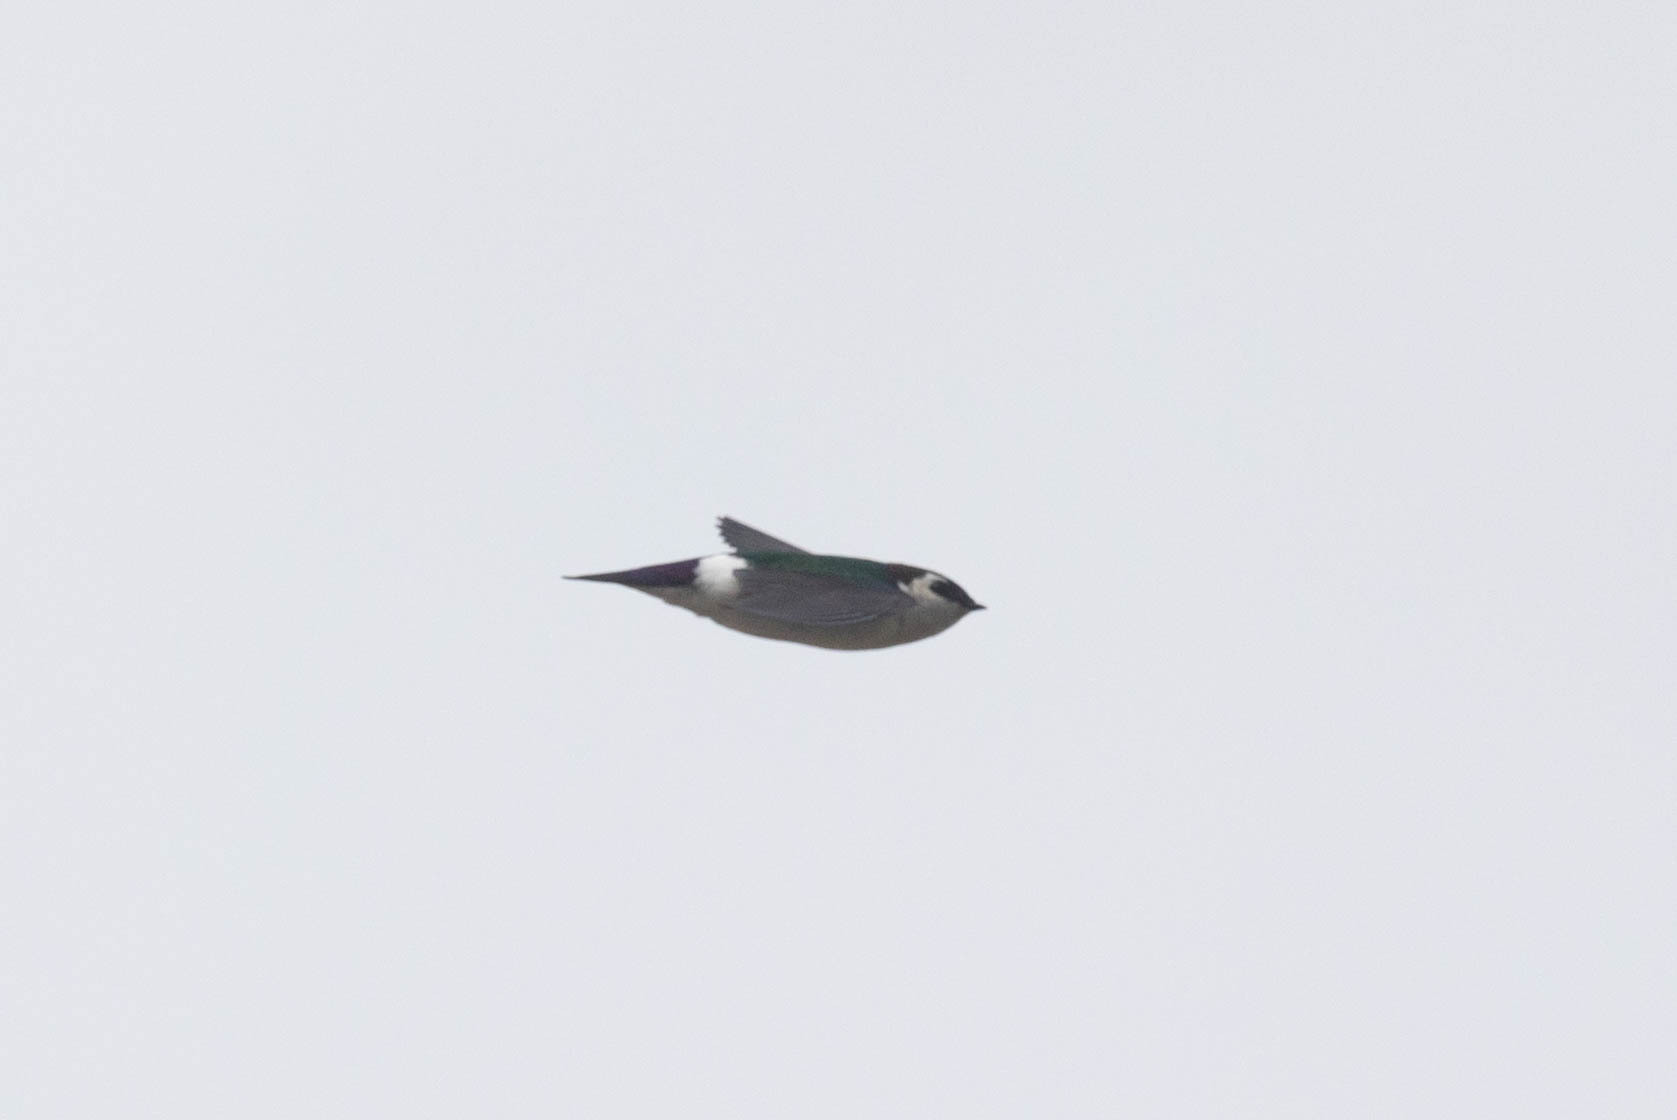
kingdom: Animalia
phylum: Chordata
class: Aves
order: Passeriformes
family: Hirundinidae
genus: Tachycineta
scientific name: Tachycineta thalassina
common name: Violet-green swallow
